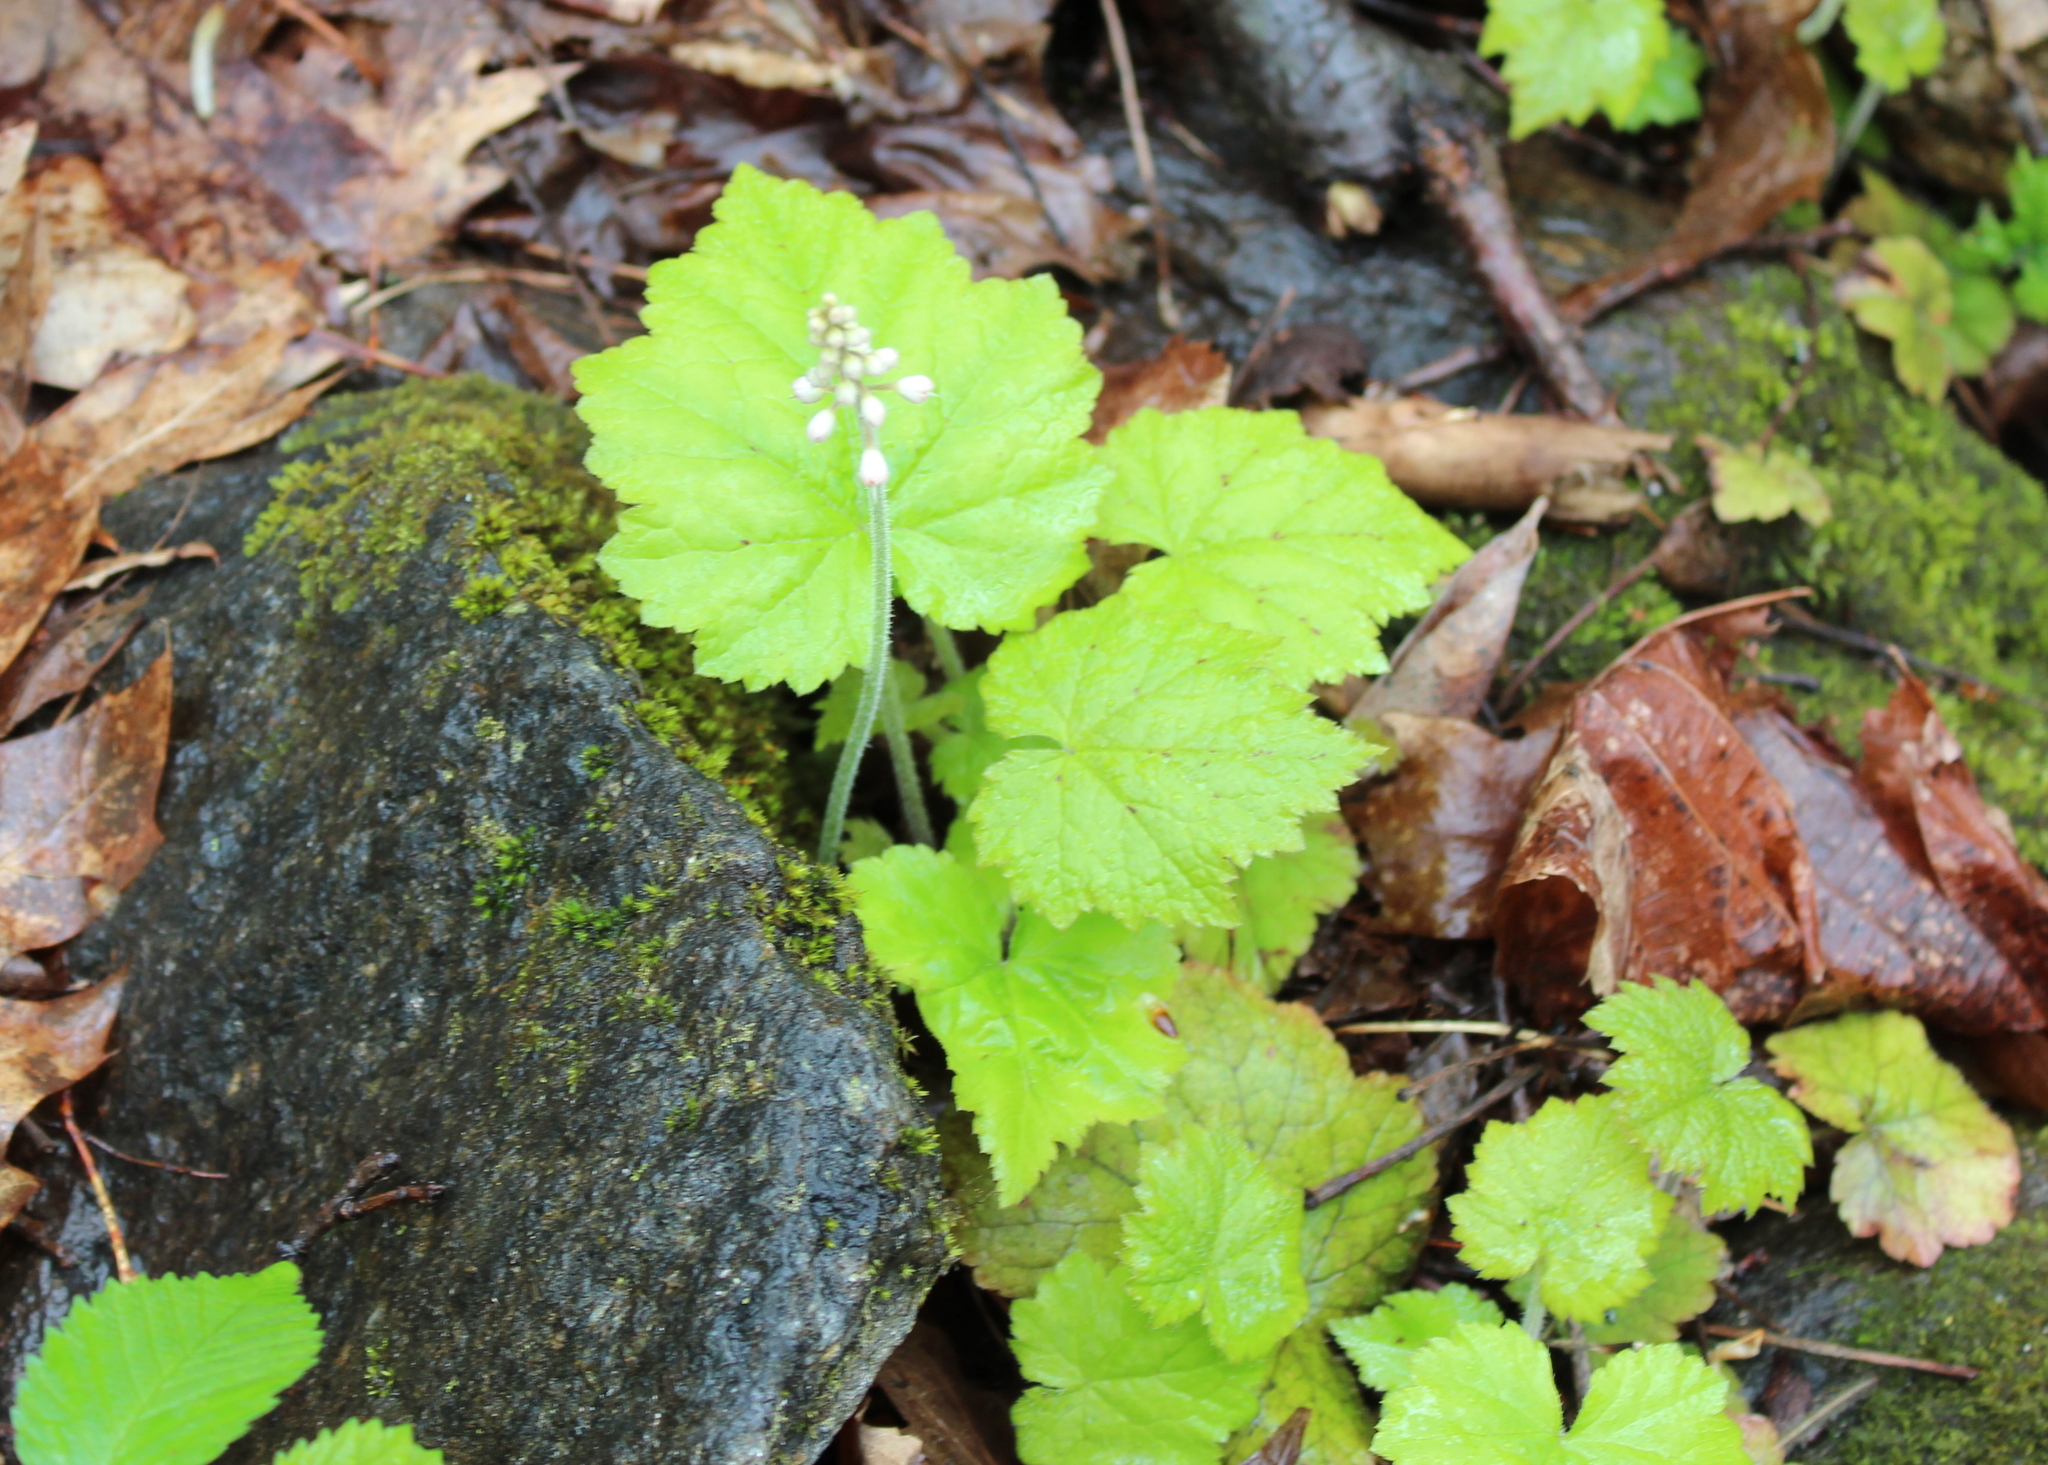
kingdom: Plantae
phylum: Tracheophyta
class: Magnoliopsida
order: Saxifragales
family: Saxifragaceae
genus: Tiarella
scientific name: Tiarella stolonifera
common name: Stoloniferous foamflower
